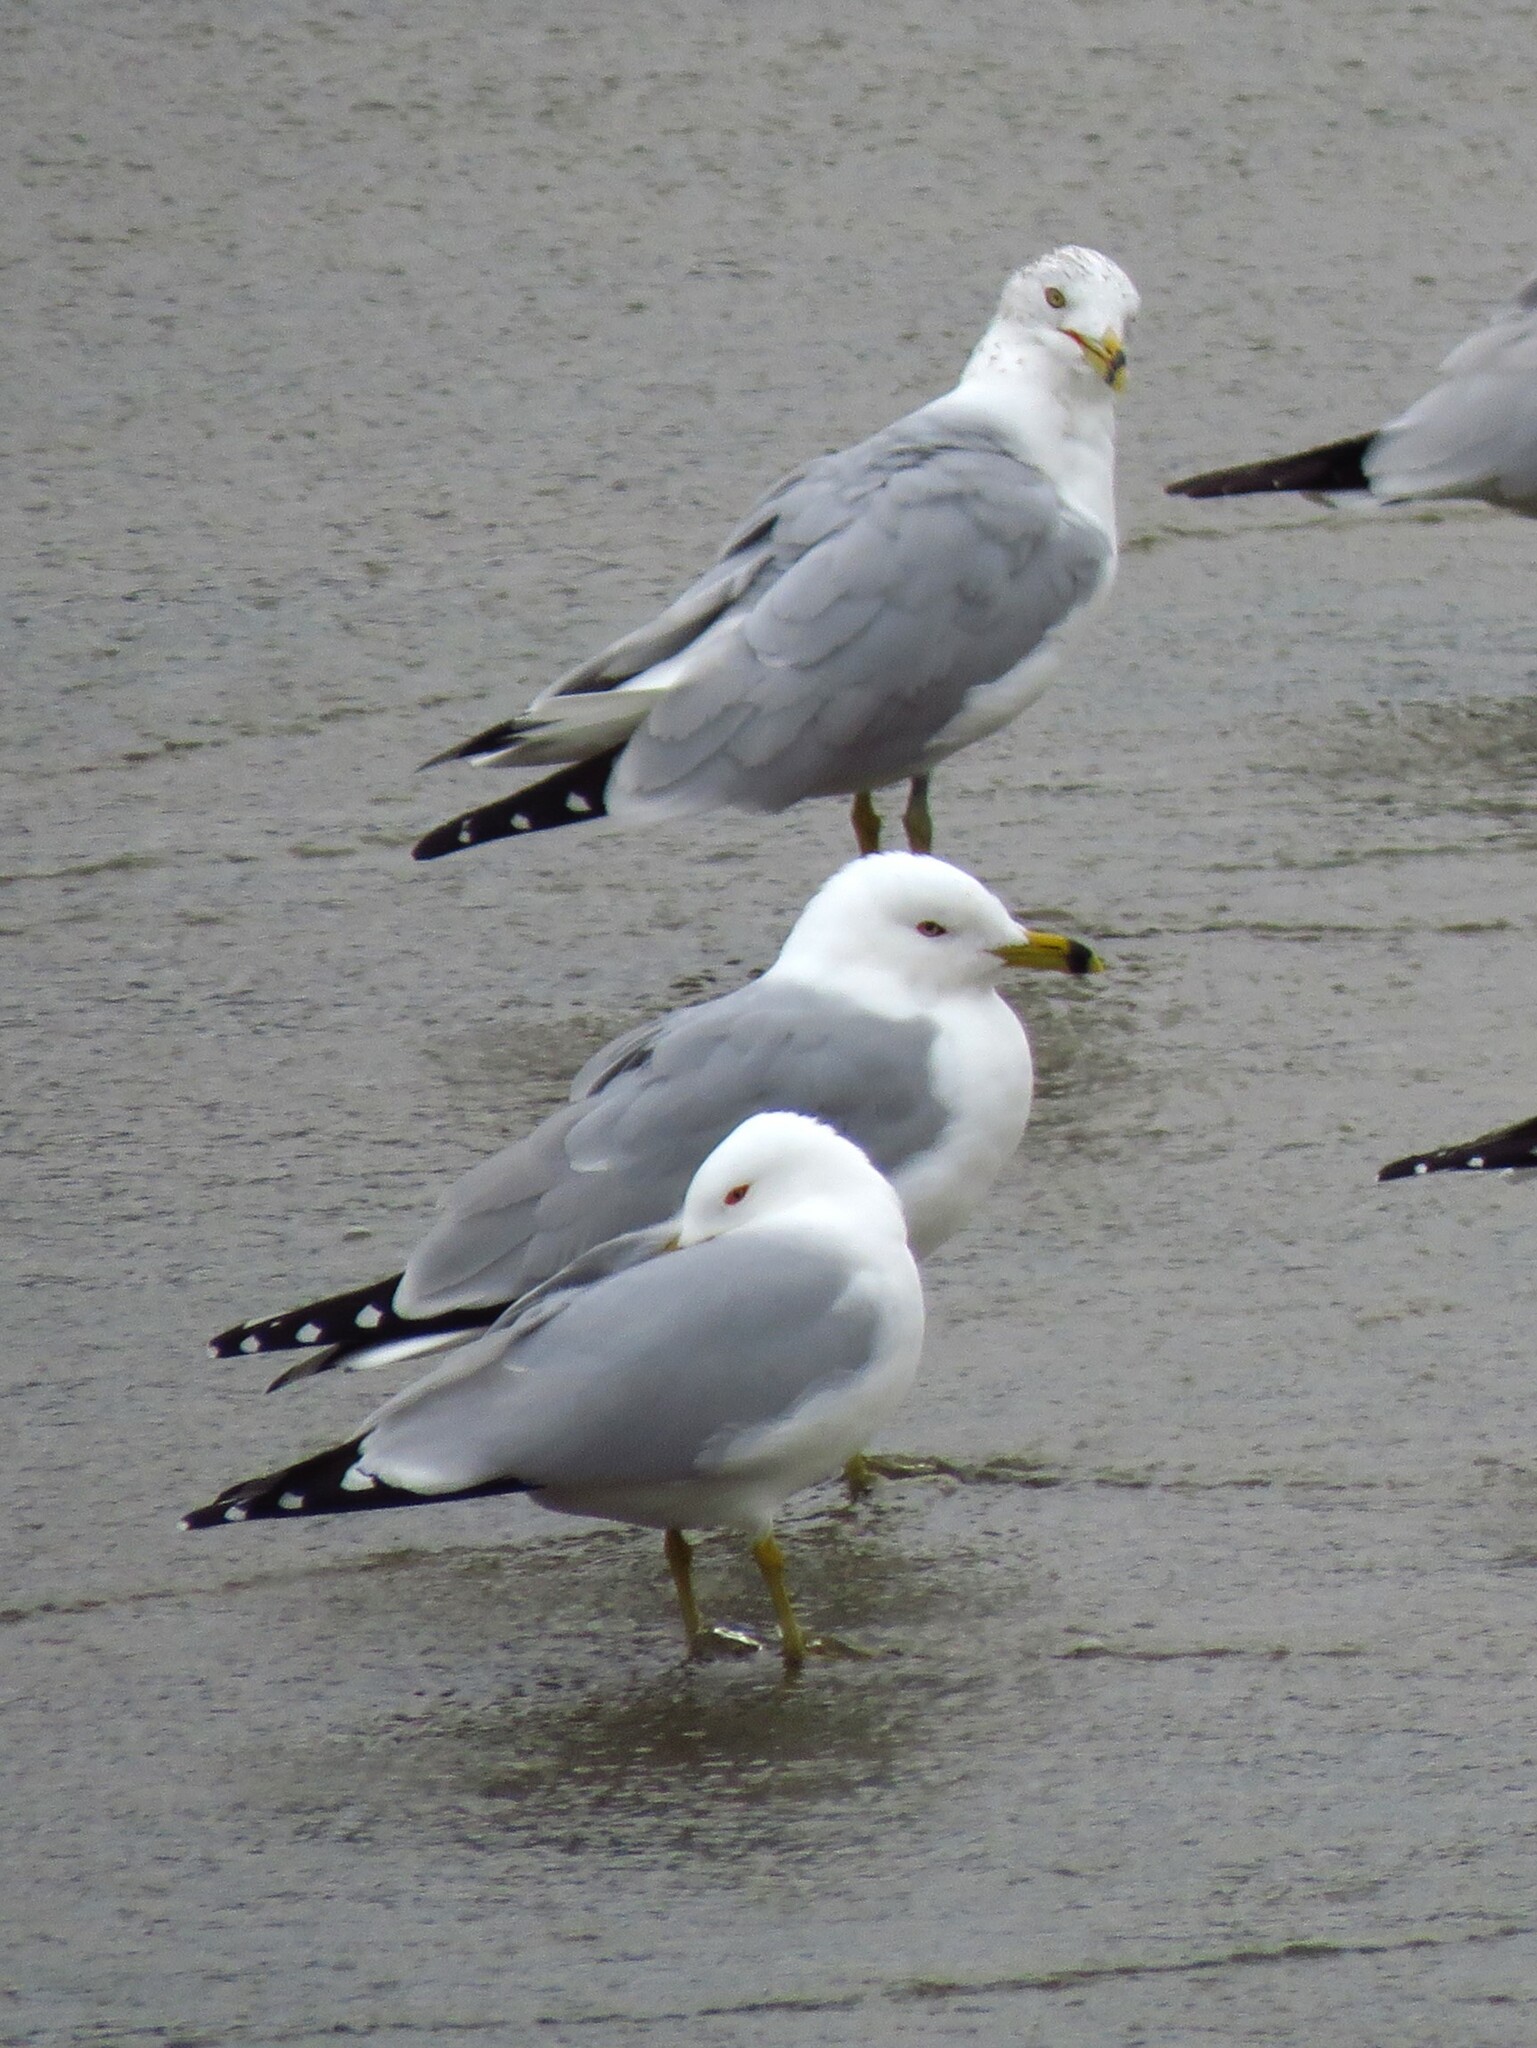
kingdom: Animalia
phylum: Chordata
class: Aves
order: Charadriiformes
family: Laridae
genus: Larus
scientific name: Larus delawarensis
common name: Ring-billed gull
